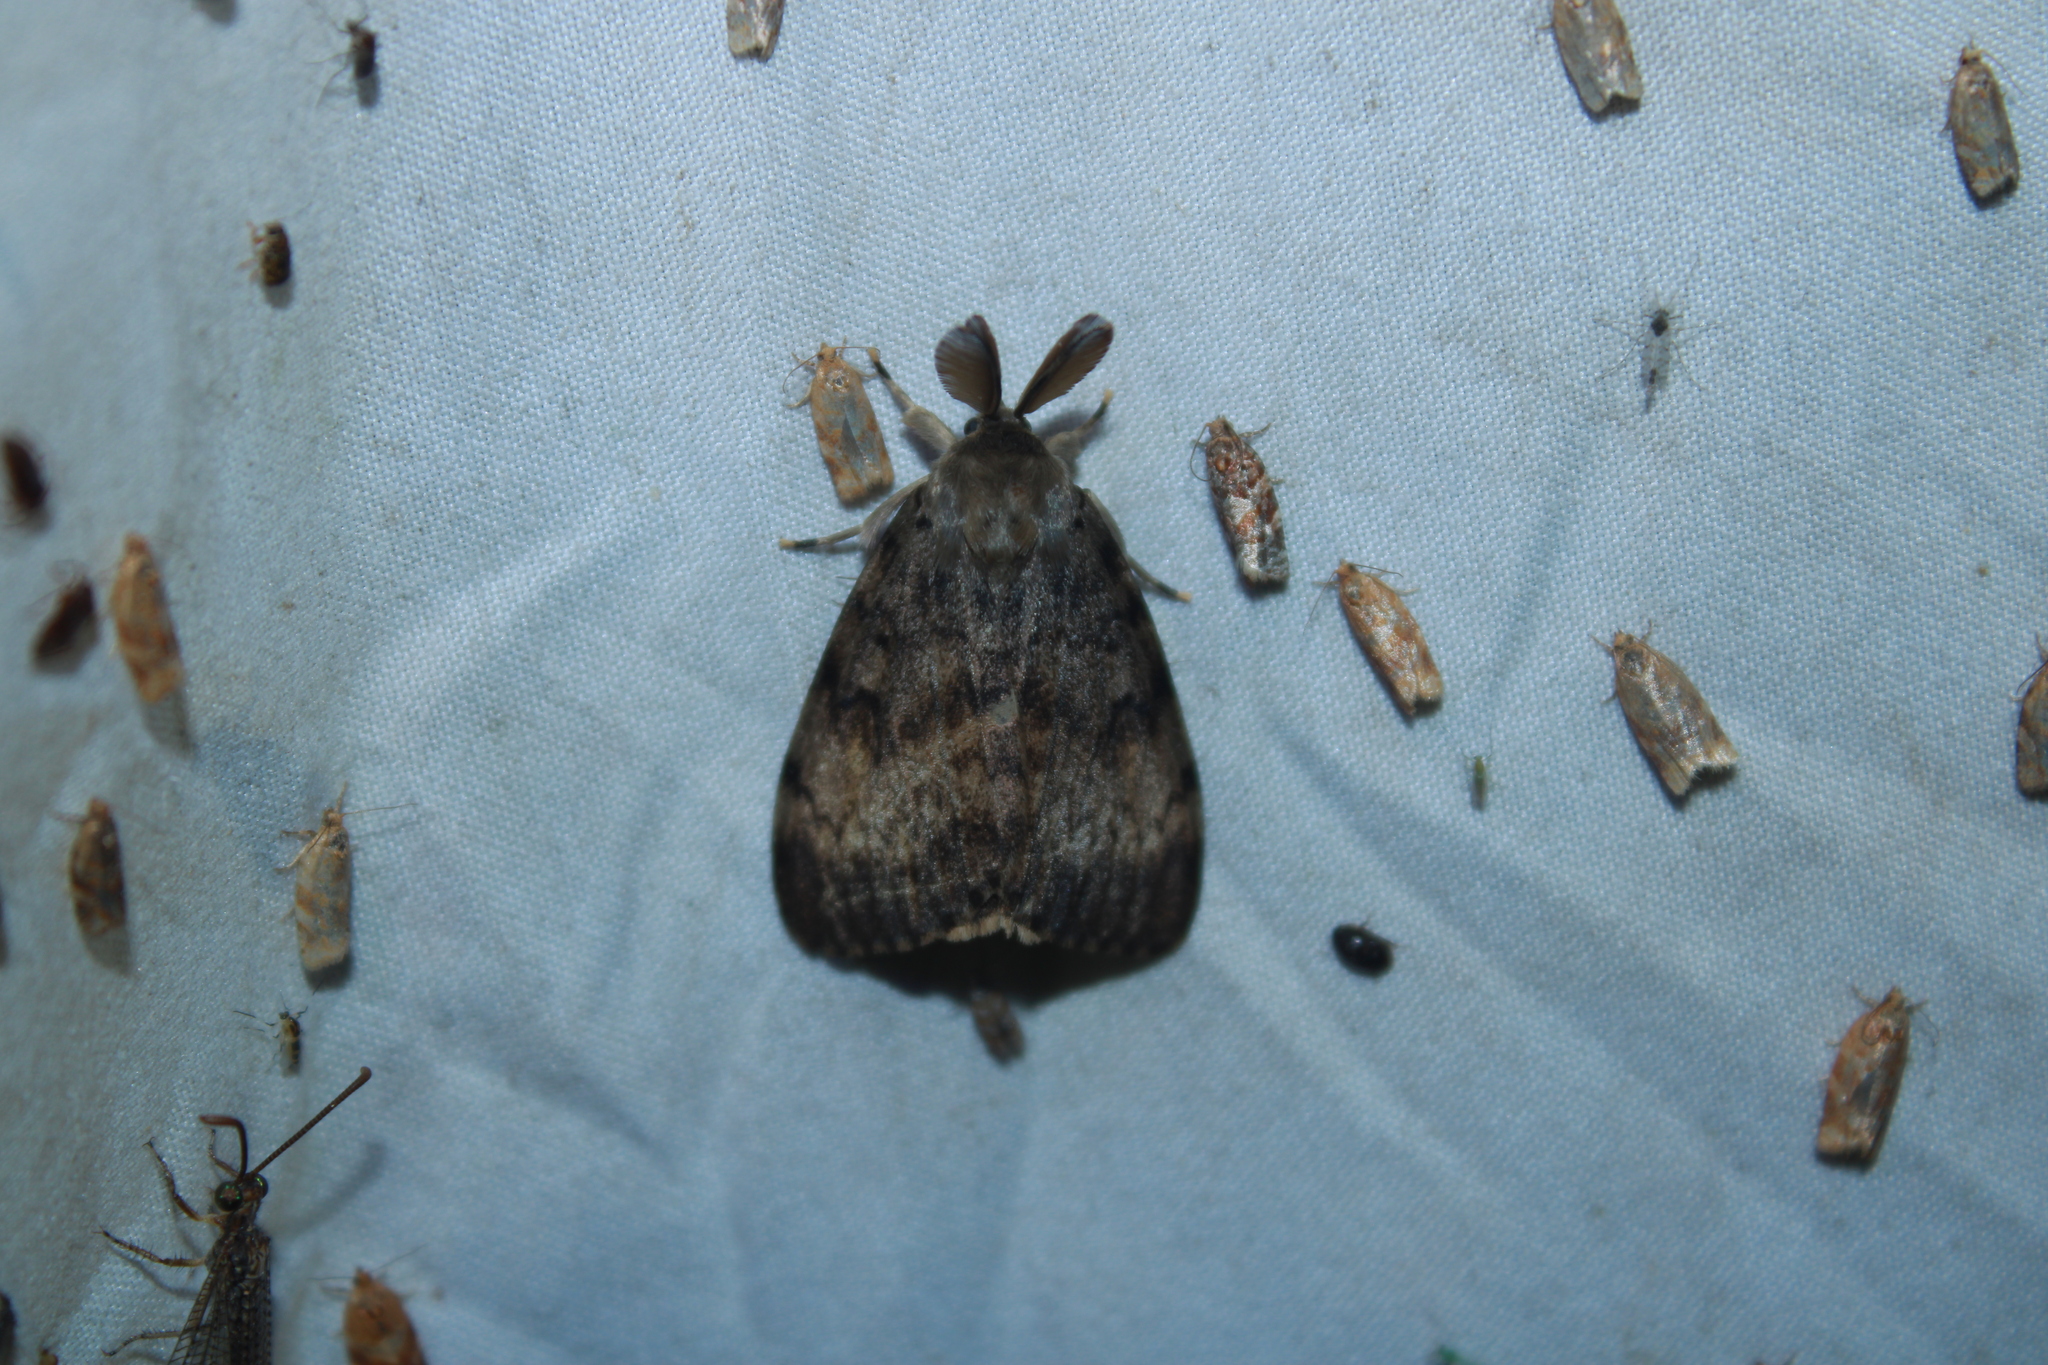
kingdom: Animalia
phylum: Arthropoda
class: Insecta
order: Lepidoptera
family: Erebidae
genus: Lymantria
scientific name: Lymantria dispar
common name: Gypsy moth
